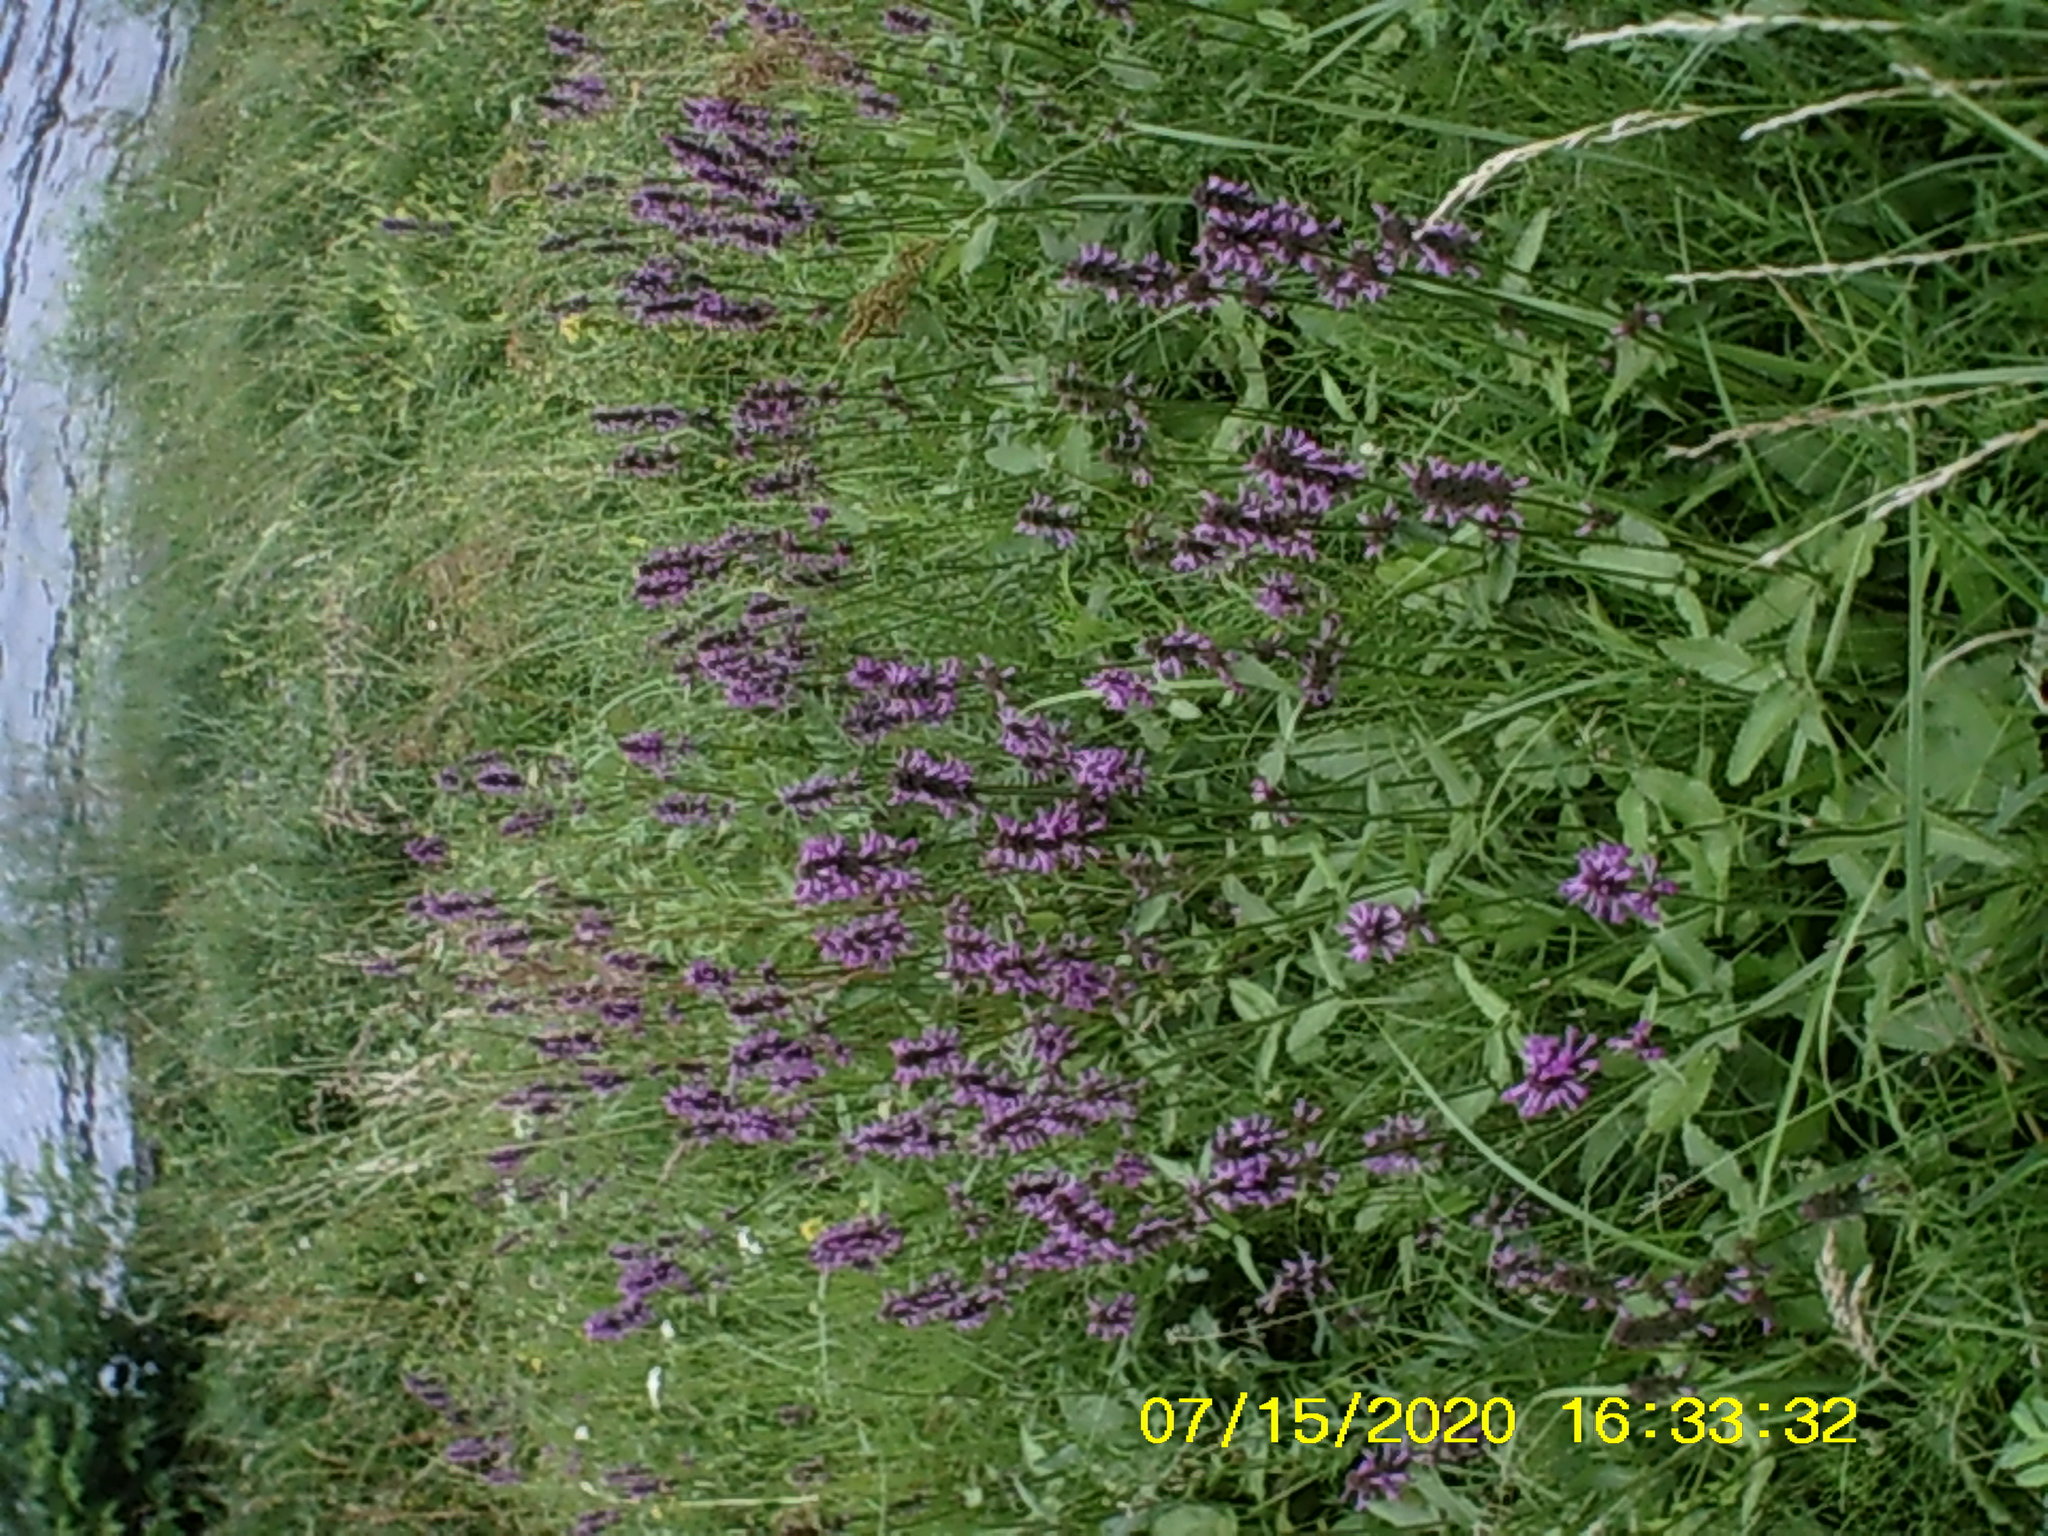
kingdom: Plantae
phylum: Tracheophyta
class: Magnoliopsida
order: Lamiales
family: Lamiaceae
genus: Betonica
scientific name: Betonica officinalis
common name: Bishop's-wort
